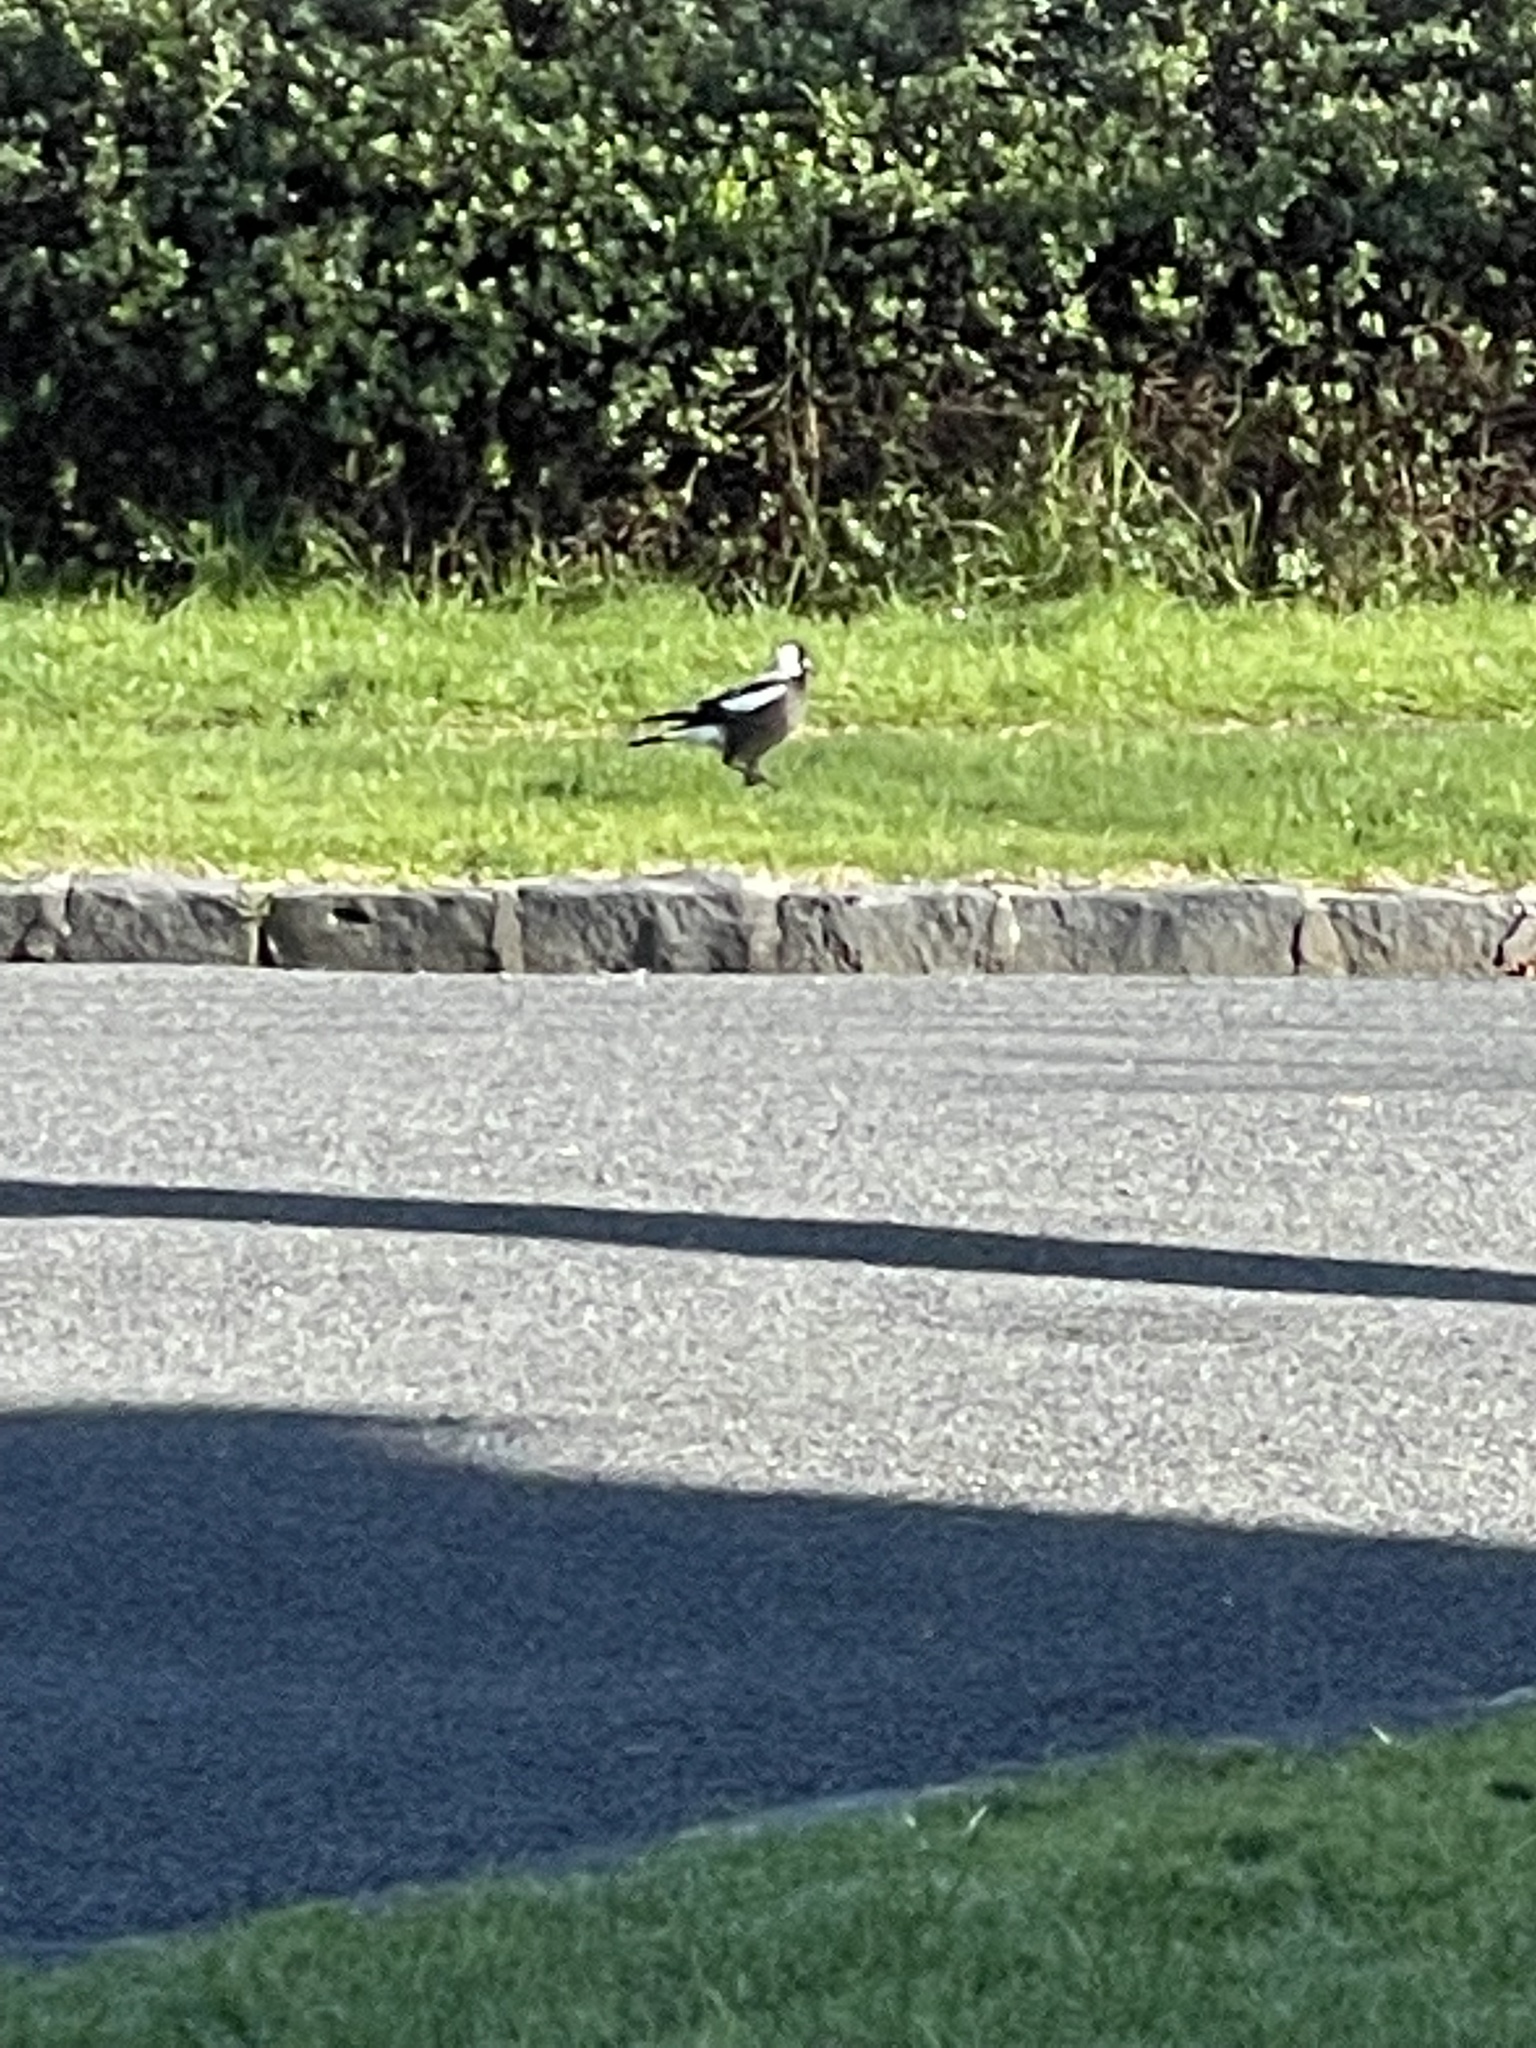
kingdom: Animalia
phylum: Chordata
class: Aves
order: Passeriformes
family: Cracticidae
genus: Gymnorhina
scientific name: Gymnorhina tibicen
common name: Australian magpie
